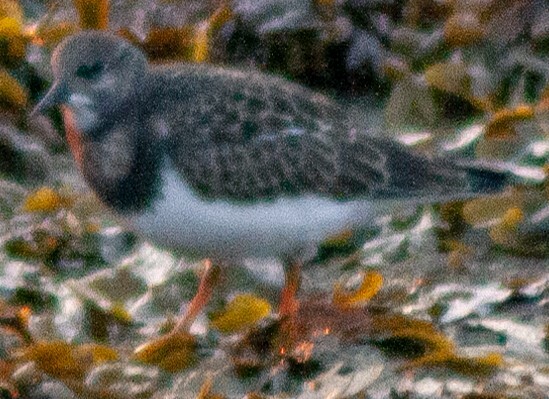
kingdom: Animalia
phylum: Chordata
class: Aves
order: Charadriiformes
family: Scolopacidae
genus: Arenaria
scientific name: Arenaria interpres
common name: Ruddy turnstone
